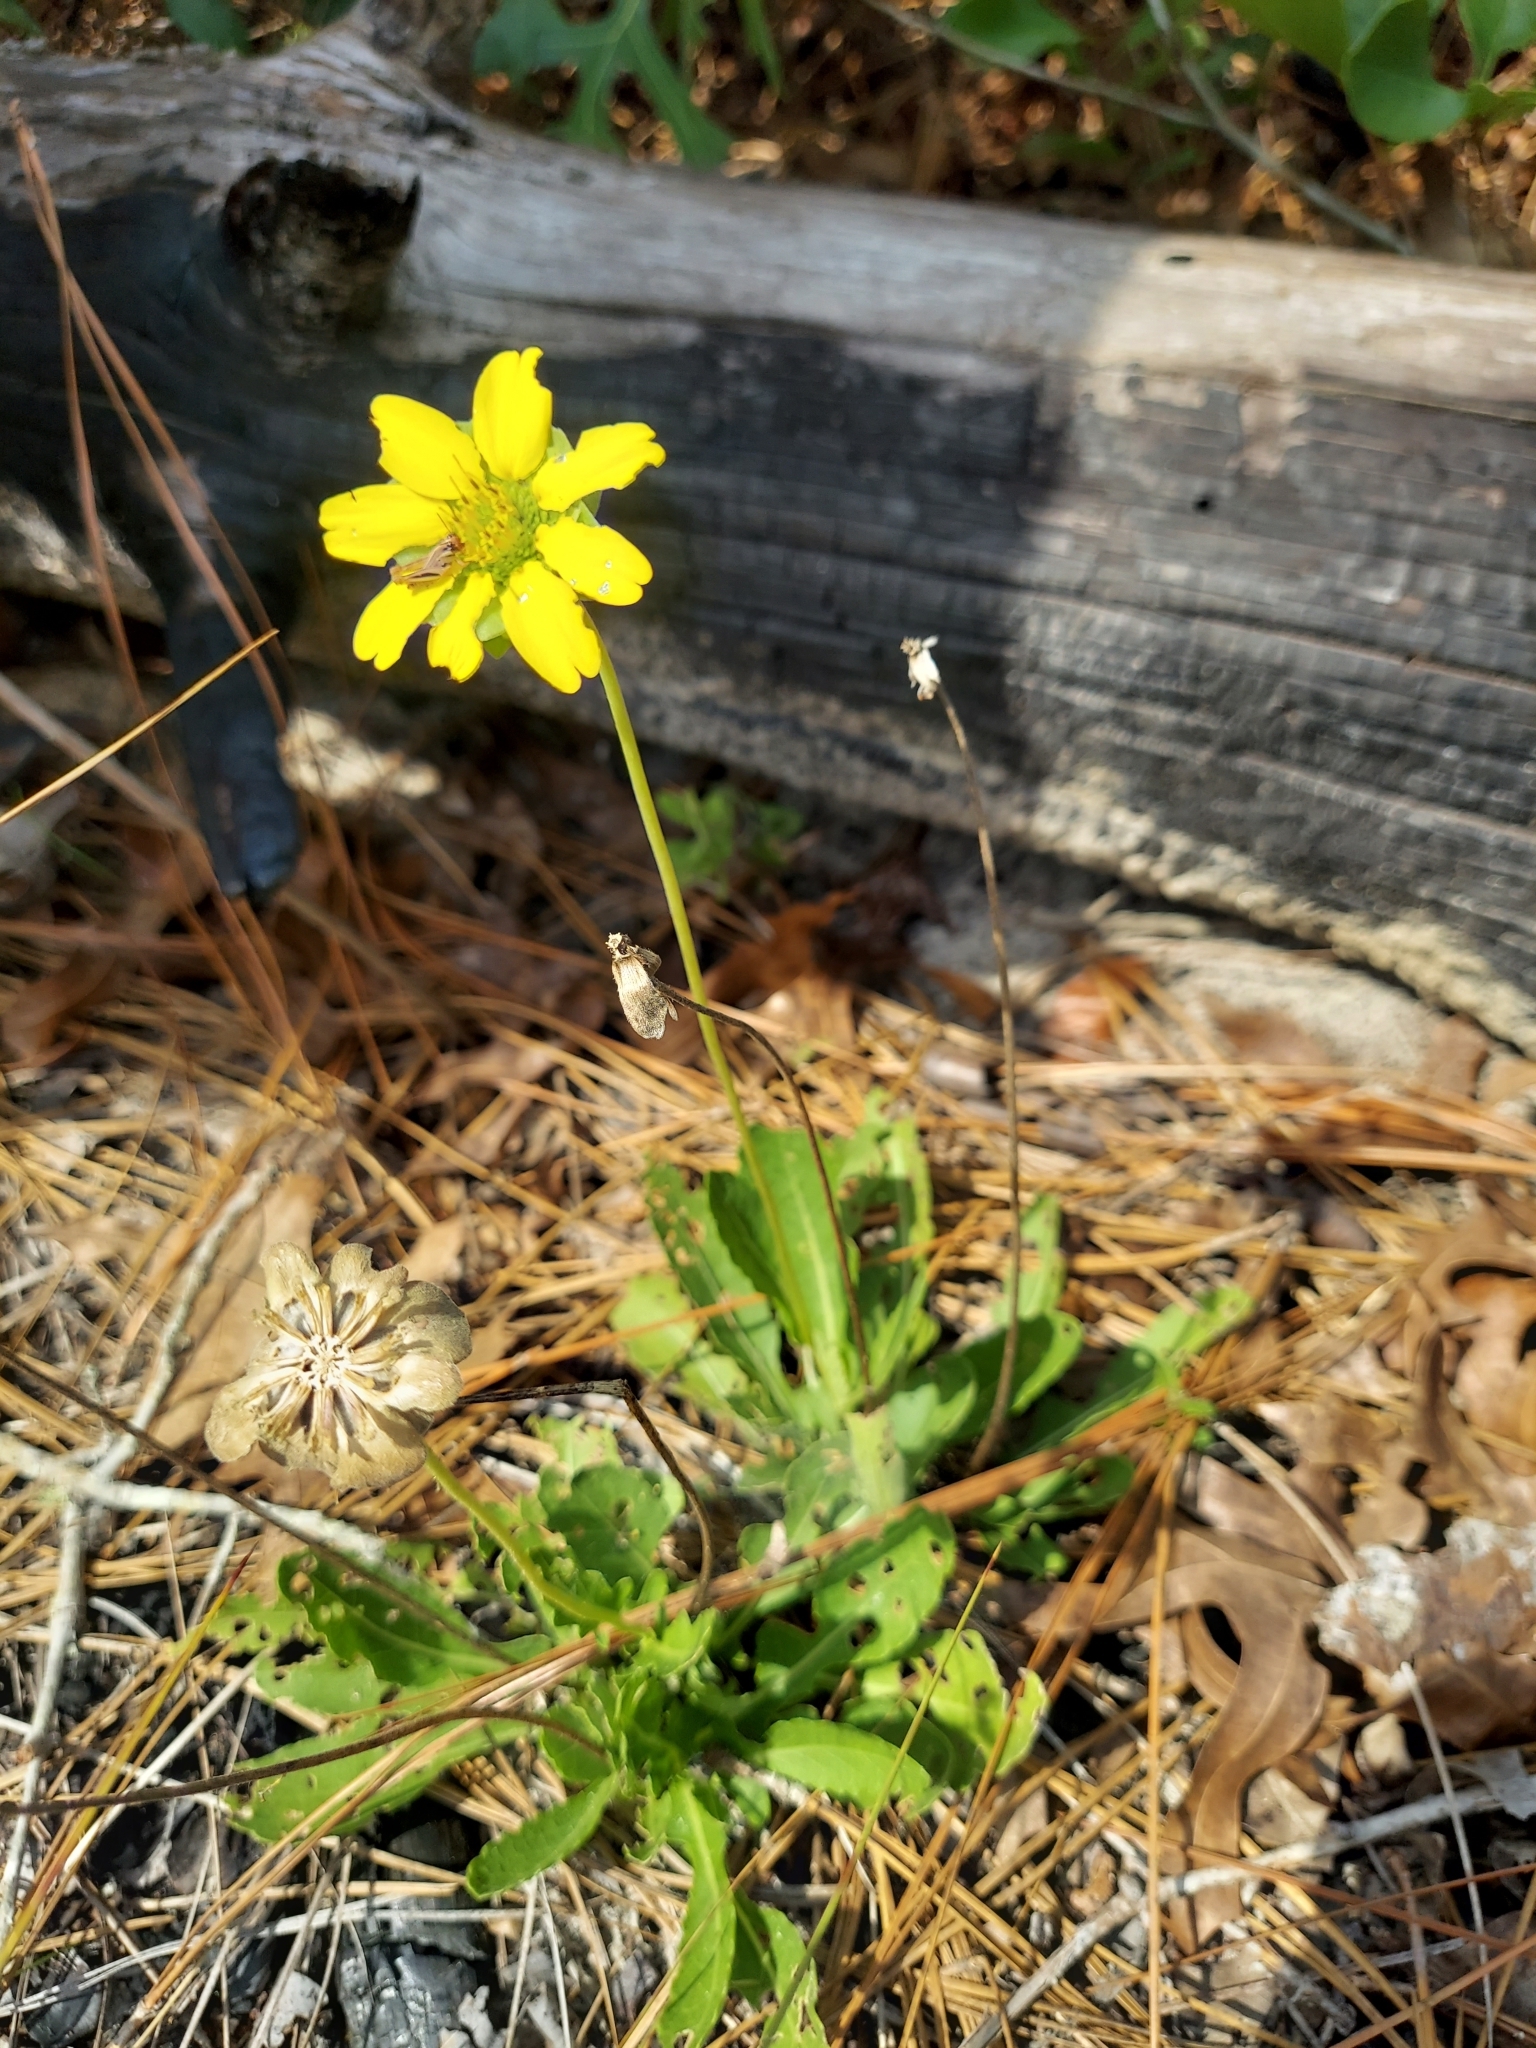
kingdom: Plantae
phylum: Tracheophyta
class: Magnoliopsida
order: Asterales
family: Asteraceae
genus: Berlandiera
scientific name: Berlandiera subacaulis
